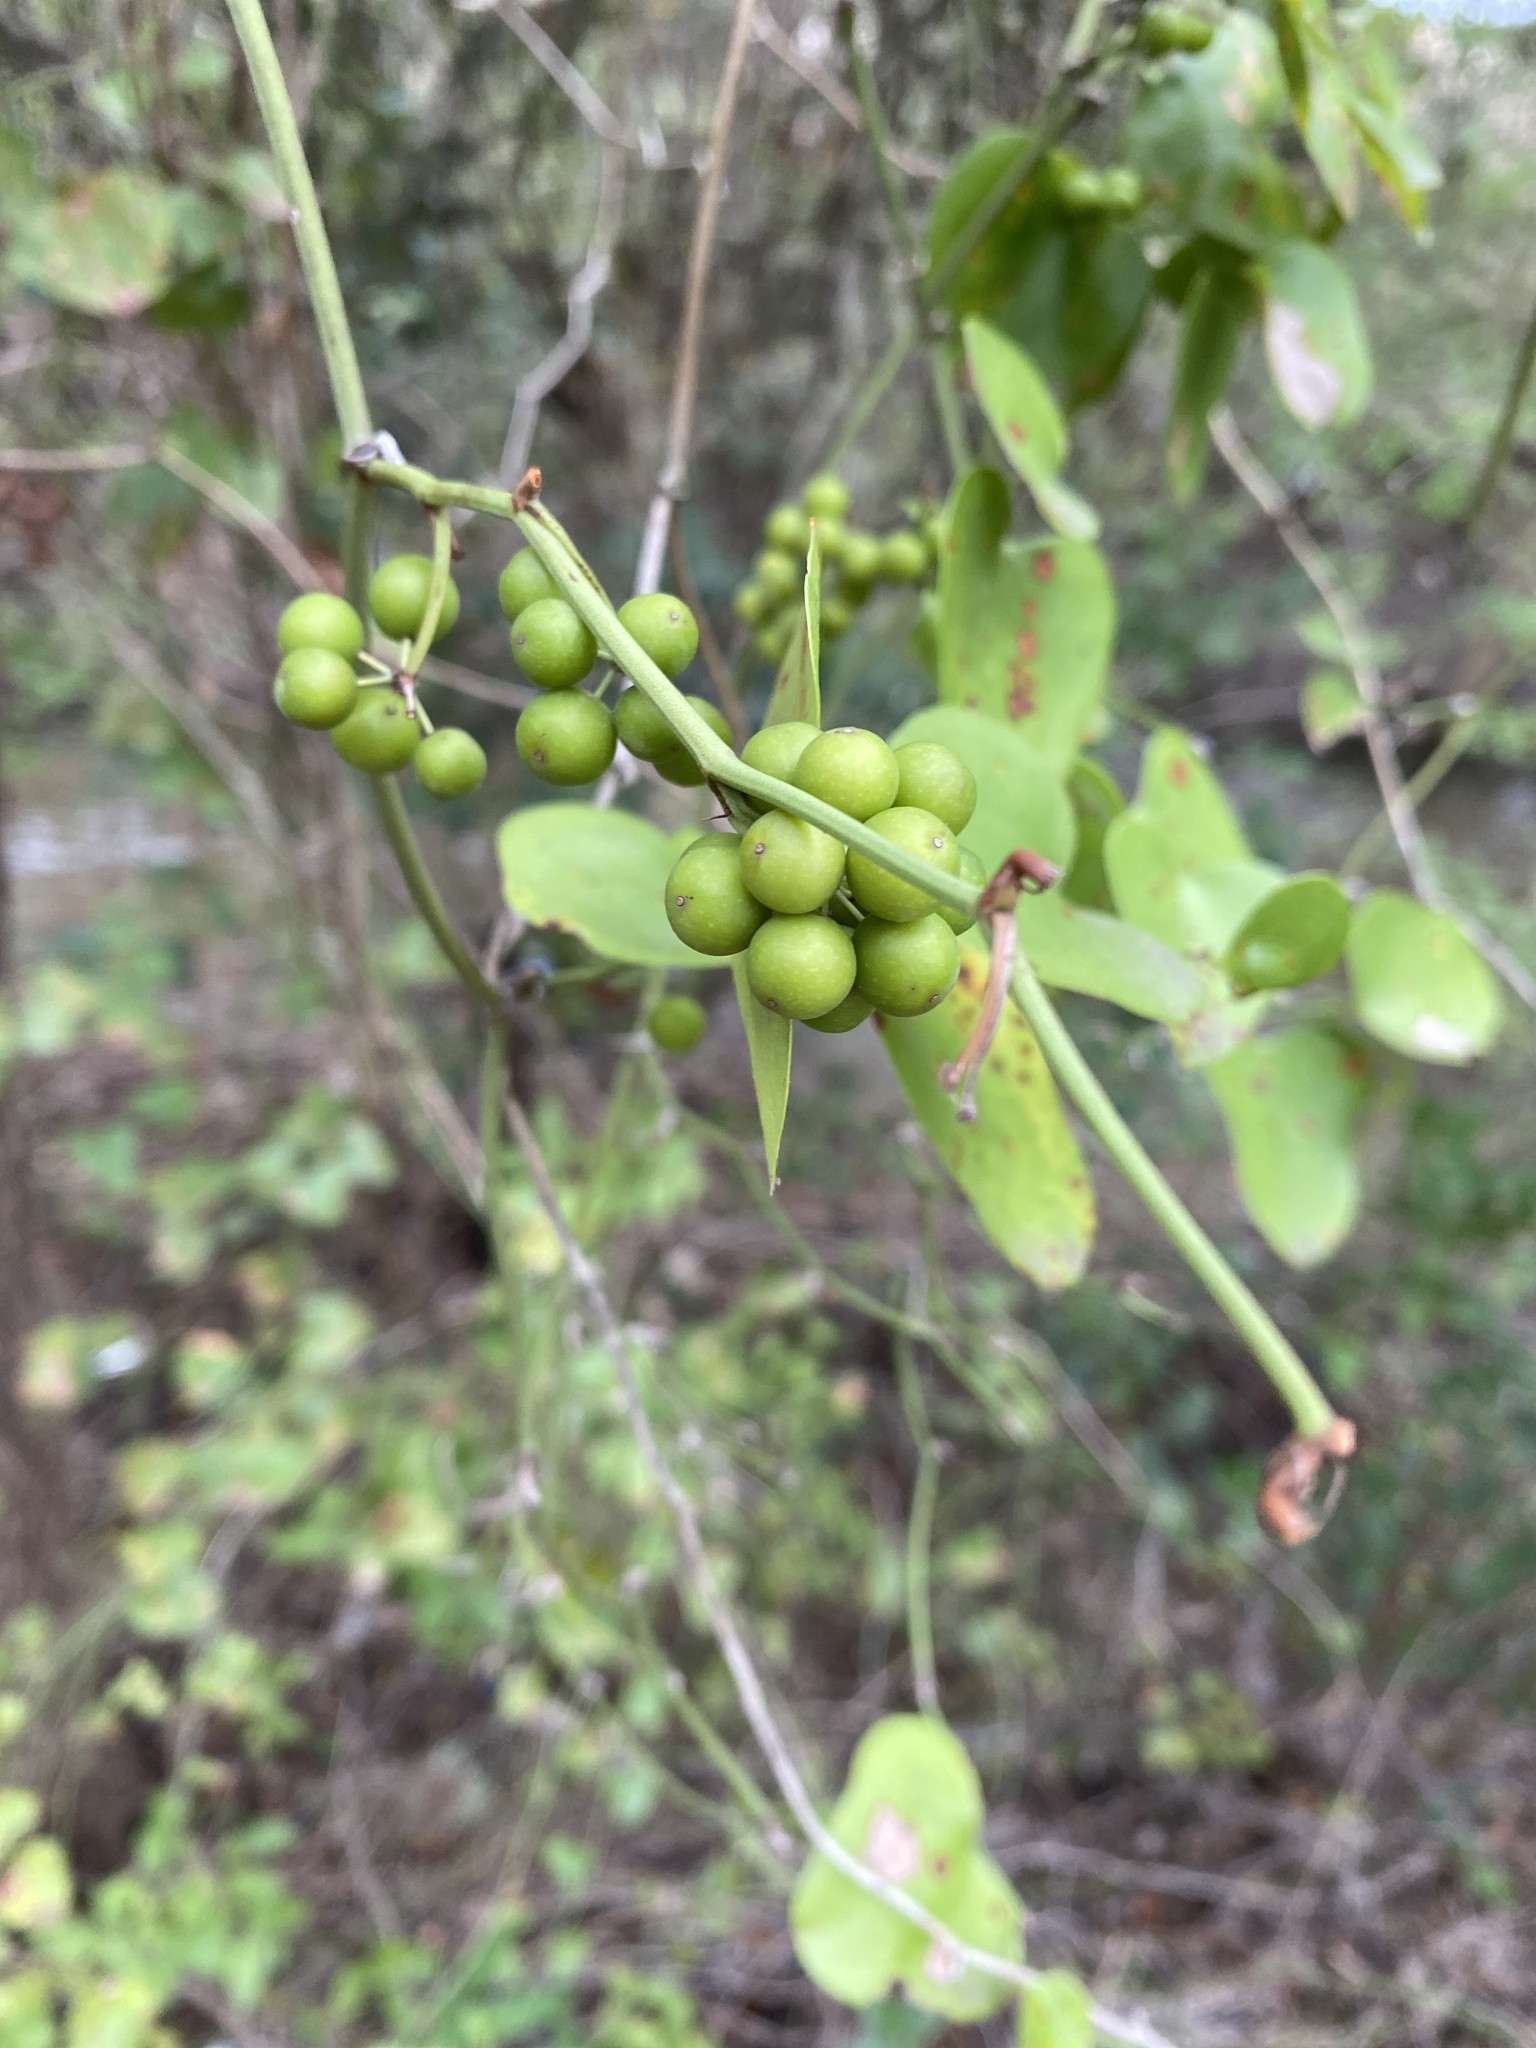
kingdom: Plantae
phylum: Tracheophyta
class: Liliopsida
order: Liliales
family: Smilacaceae
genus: Smilax
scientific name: Smilax bona-nox
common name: Catbrier
